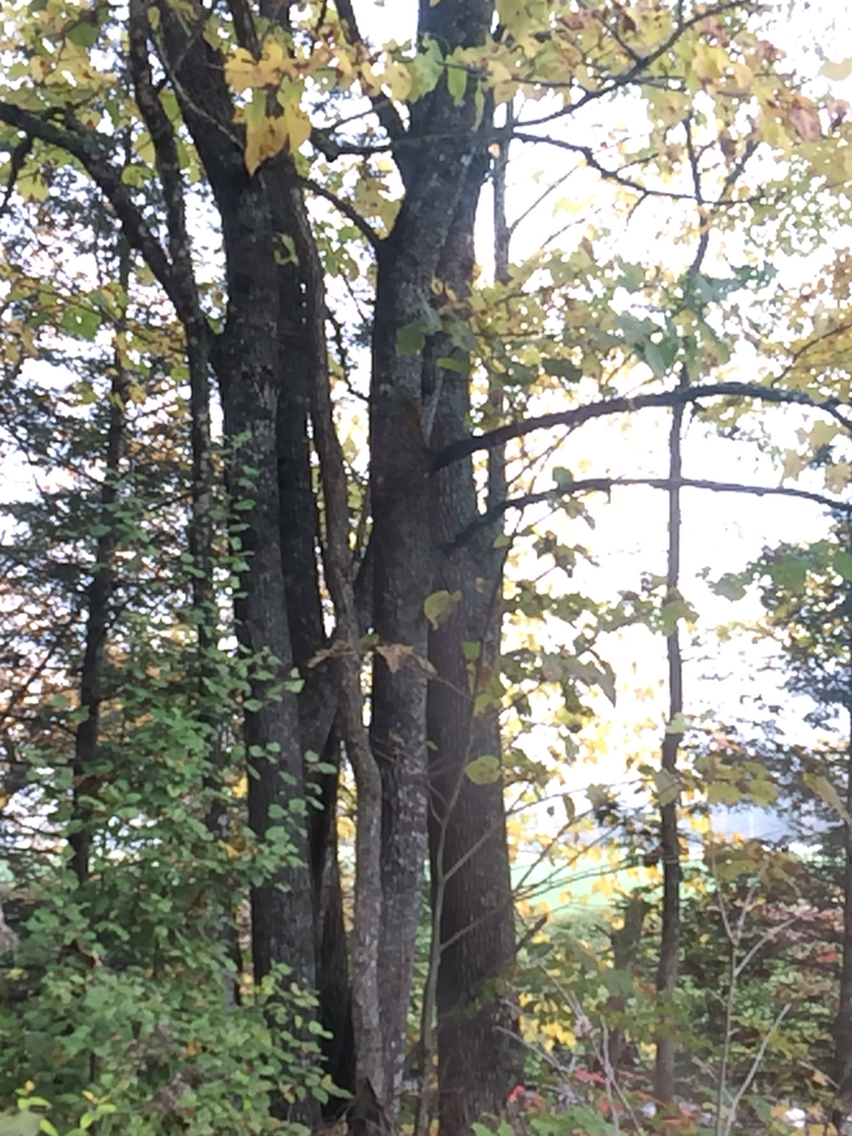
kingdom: Plantae
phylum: Tracheophyta
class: Magnoliopsida
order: Malvales
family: Malvaceae
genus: Tilia
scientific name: Tilia americana
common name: Basswood
